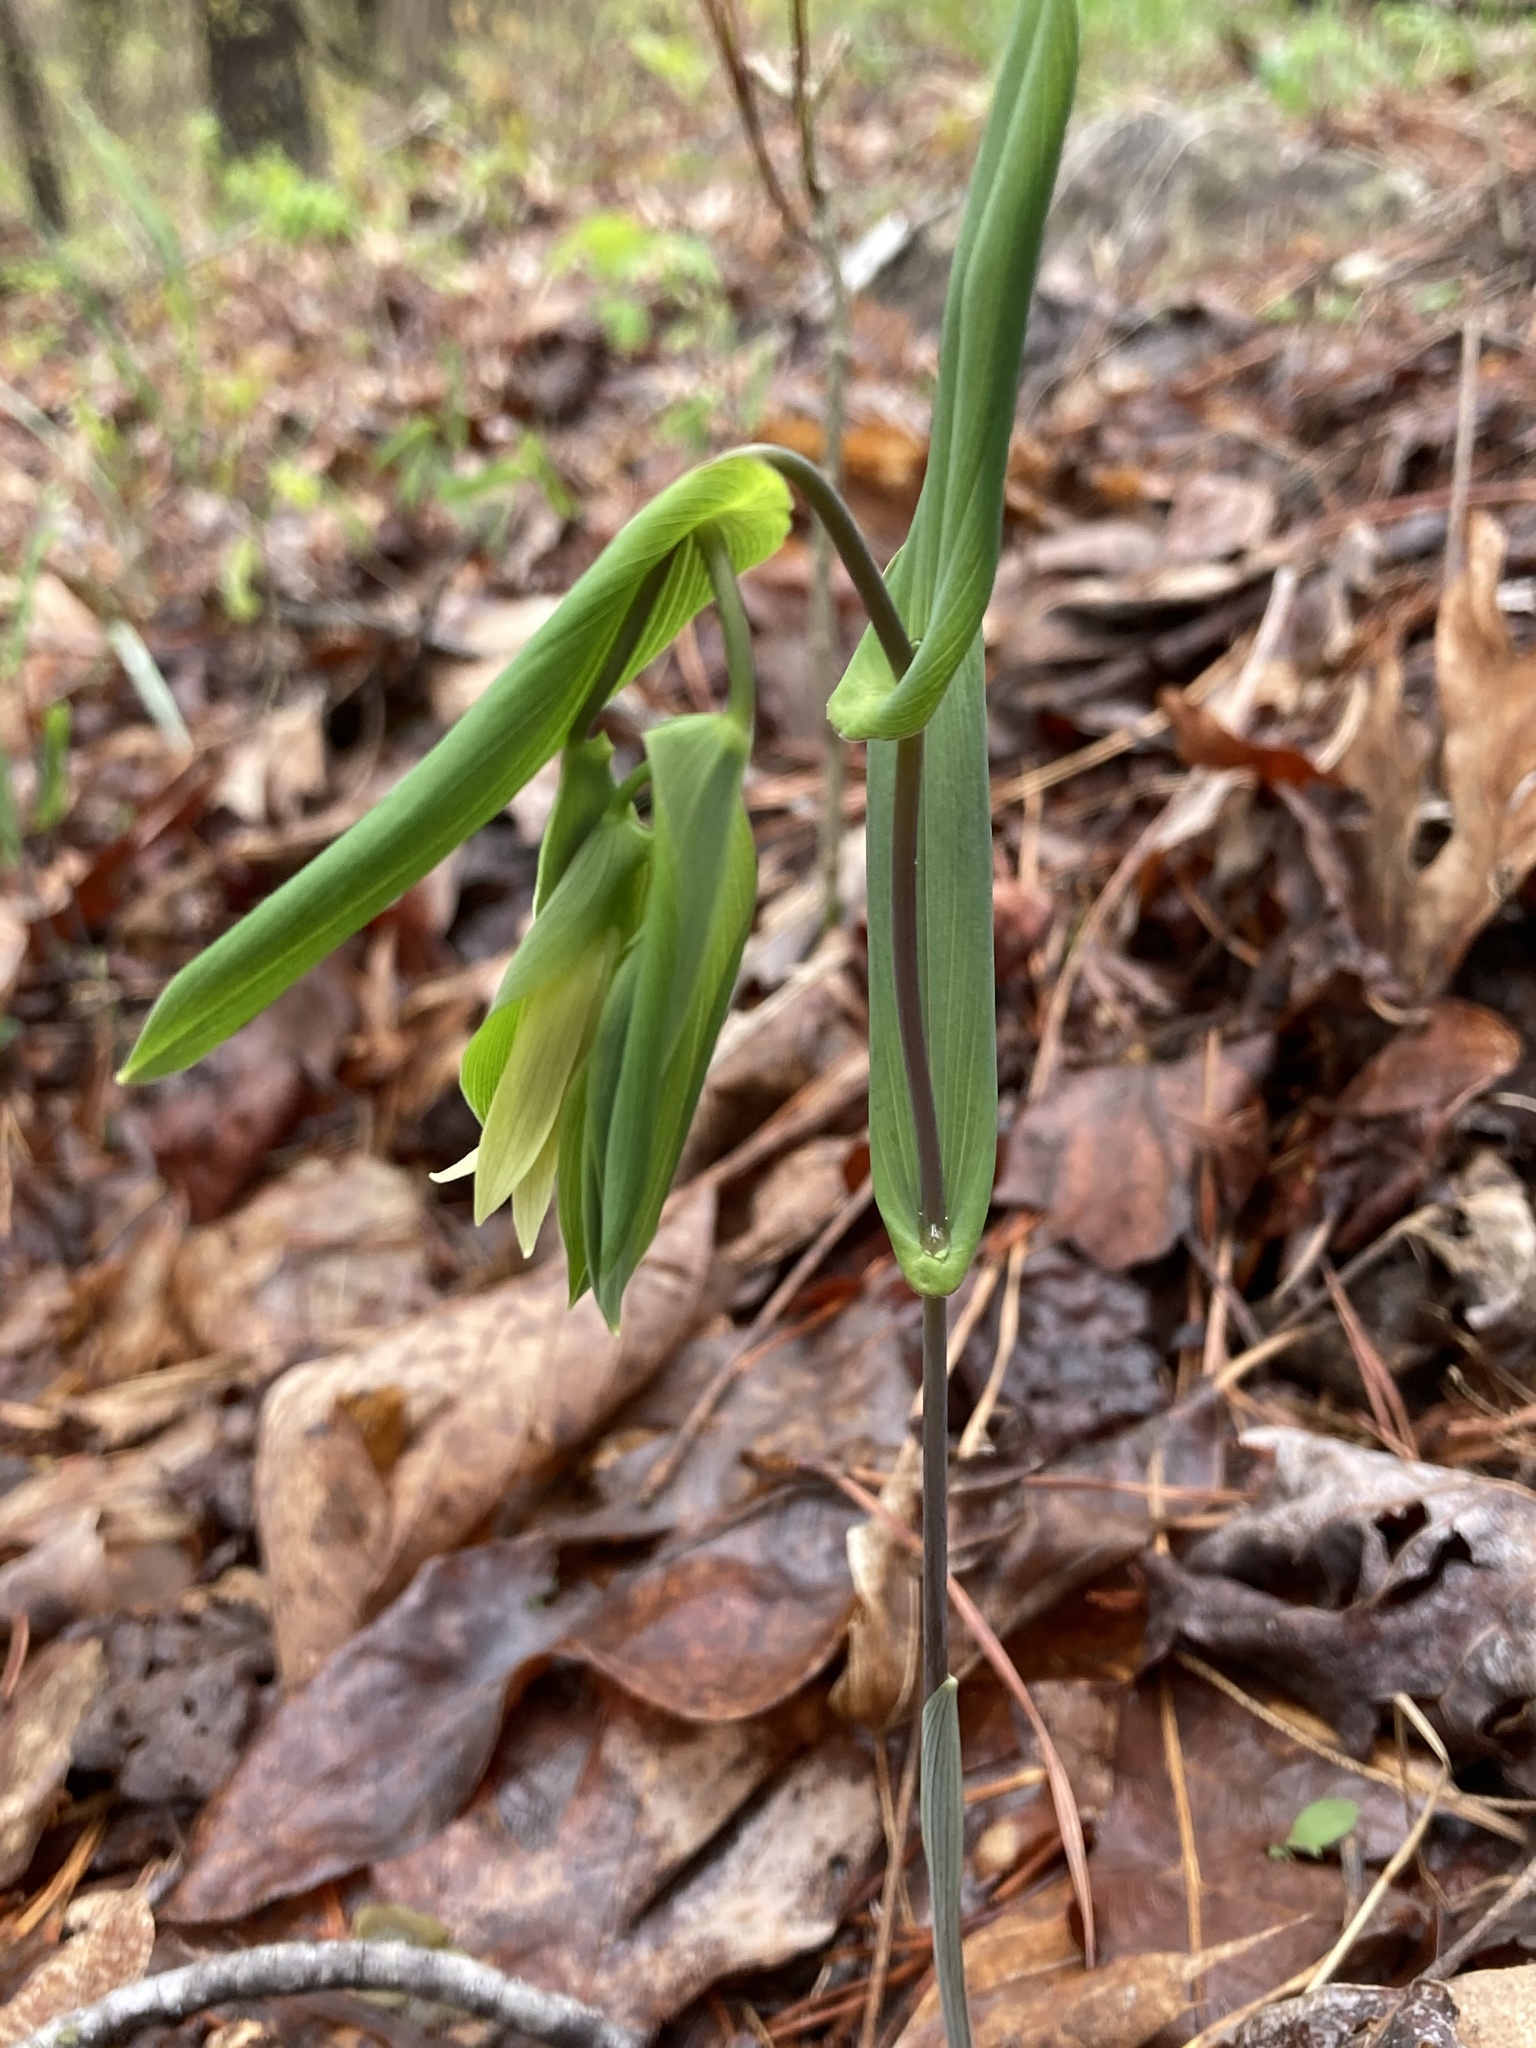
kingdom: Plantae
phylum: Tracheophyta
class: Liliopsida
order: Liliales
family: Colchicaceae
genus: Uvularia
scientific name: Uvularia perfoliata
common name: Perfoliate bellwort
